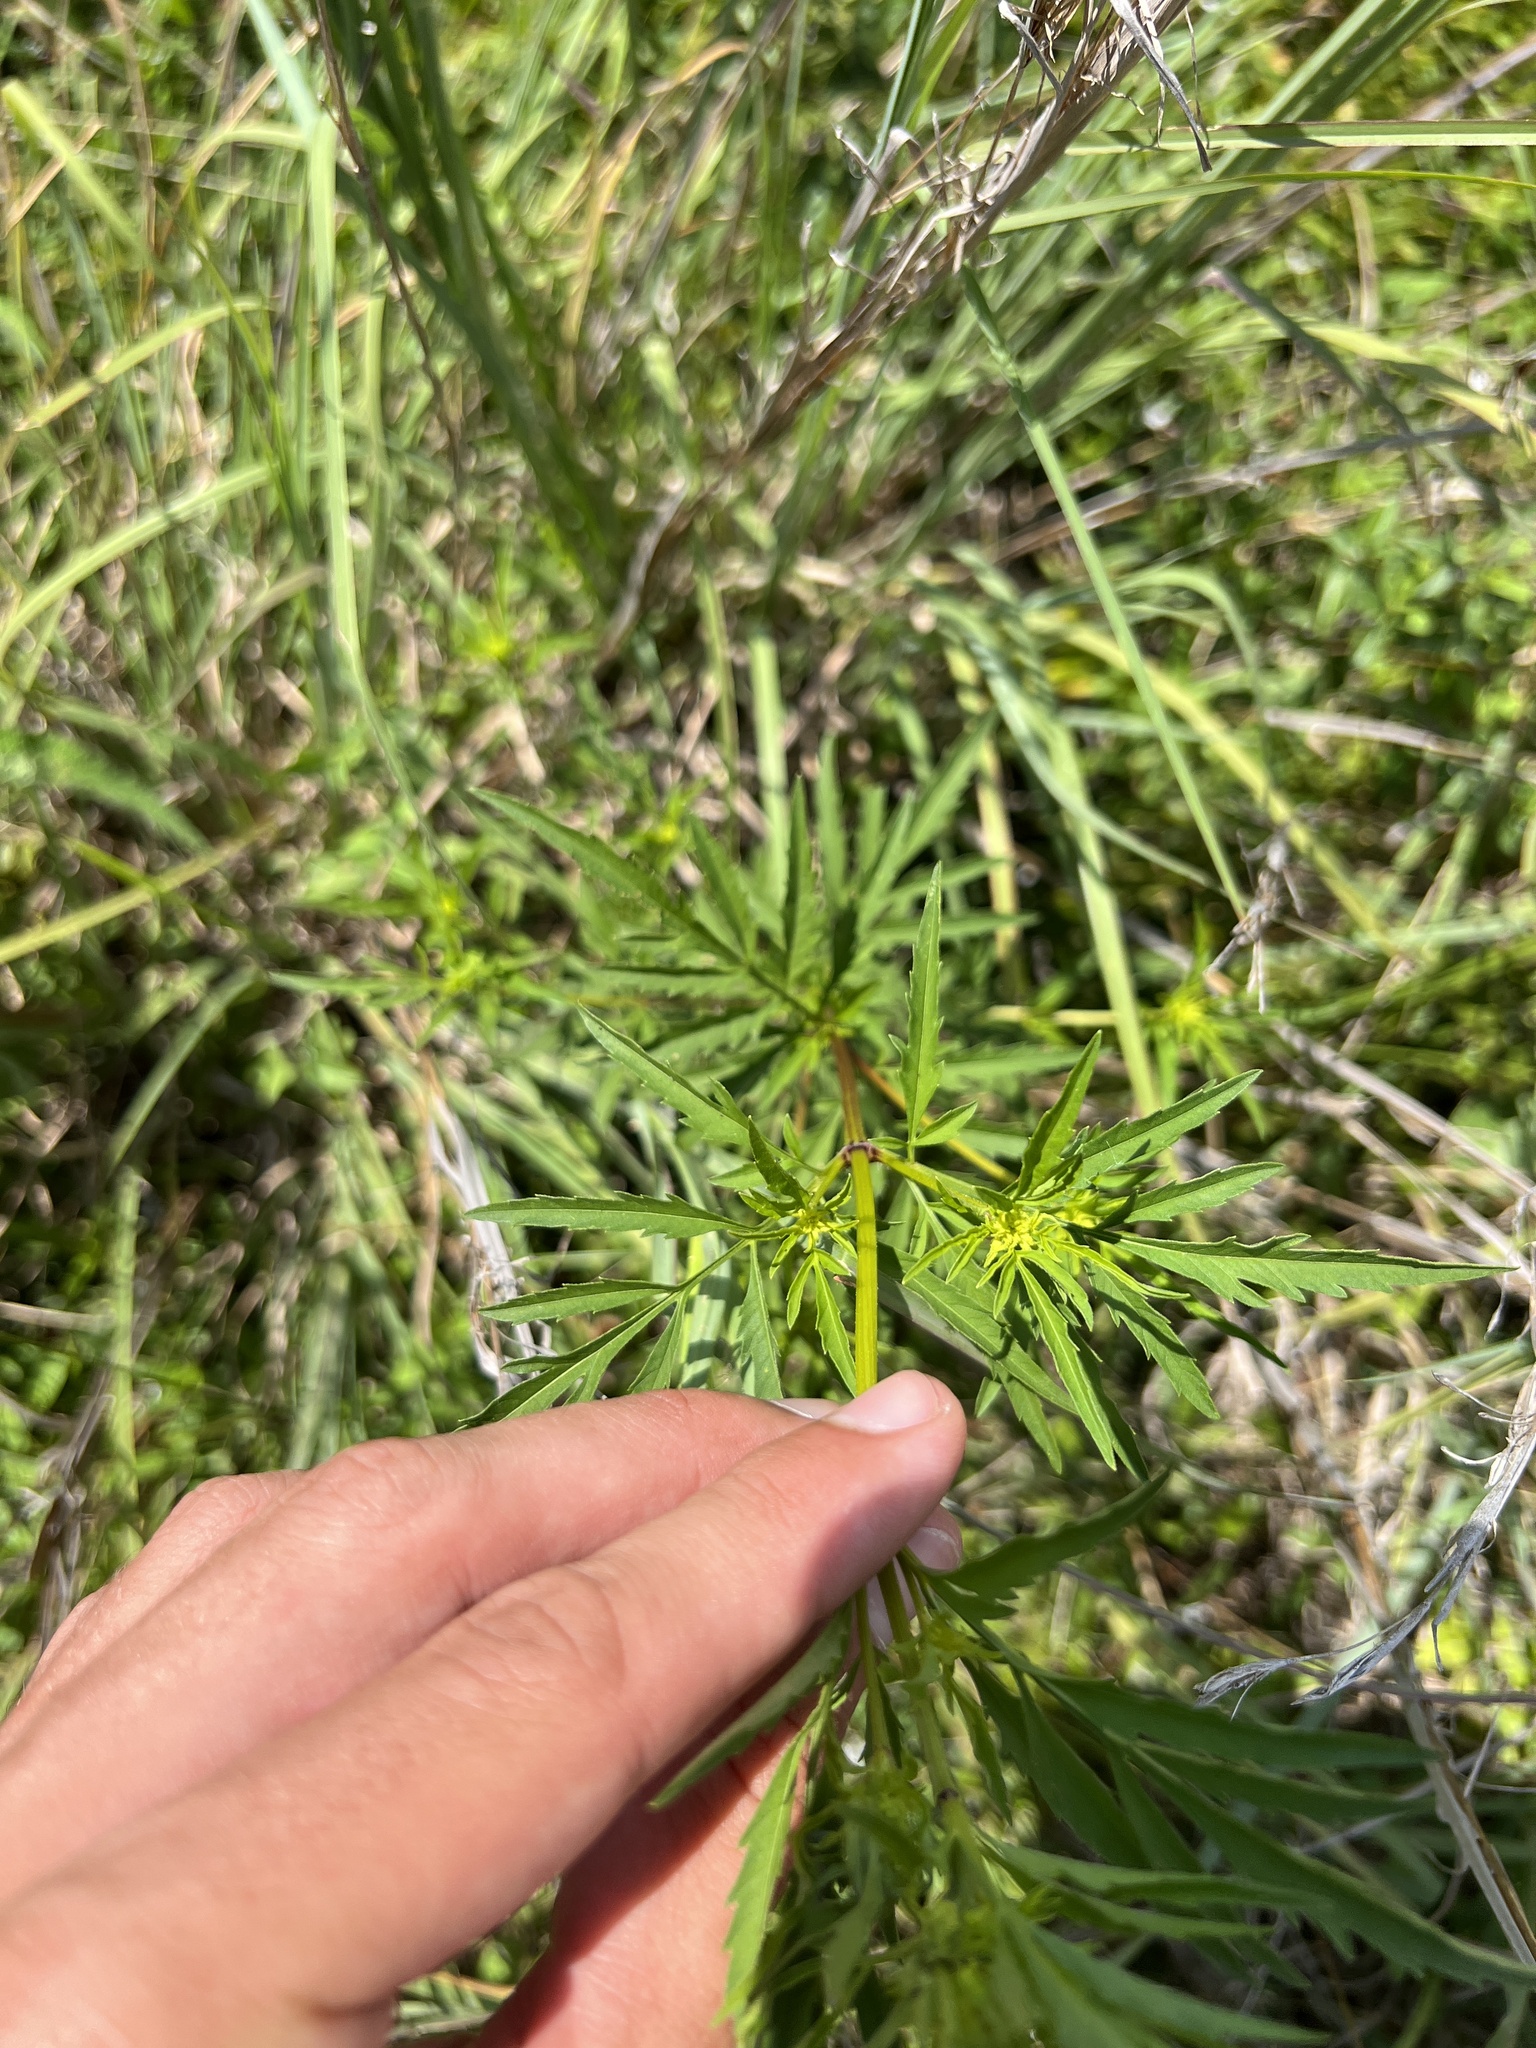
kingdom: Plantae
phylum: Tracheophyta
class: Magnoliopsida
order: Asterales
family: Asteraceae
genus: Bidens
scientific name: Bidens polylepis
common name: Awnless beggarticks
